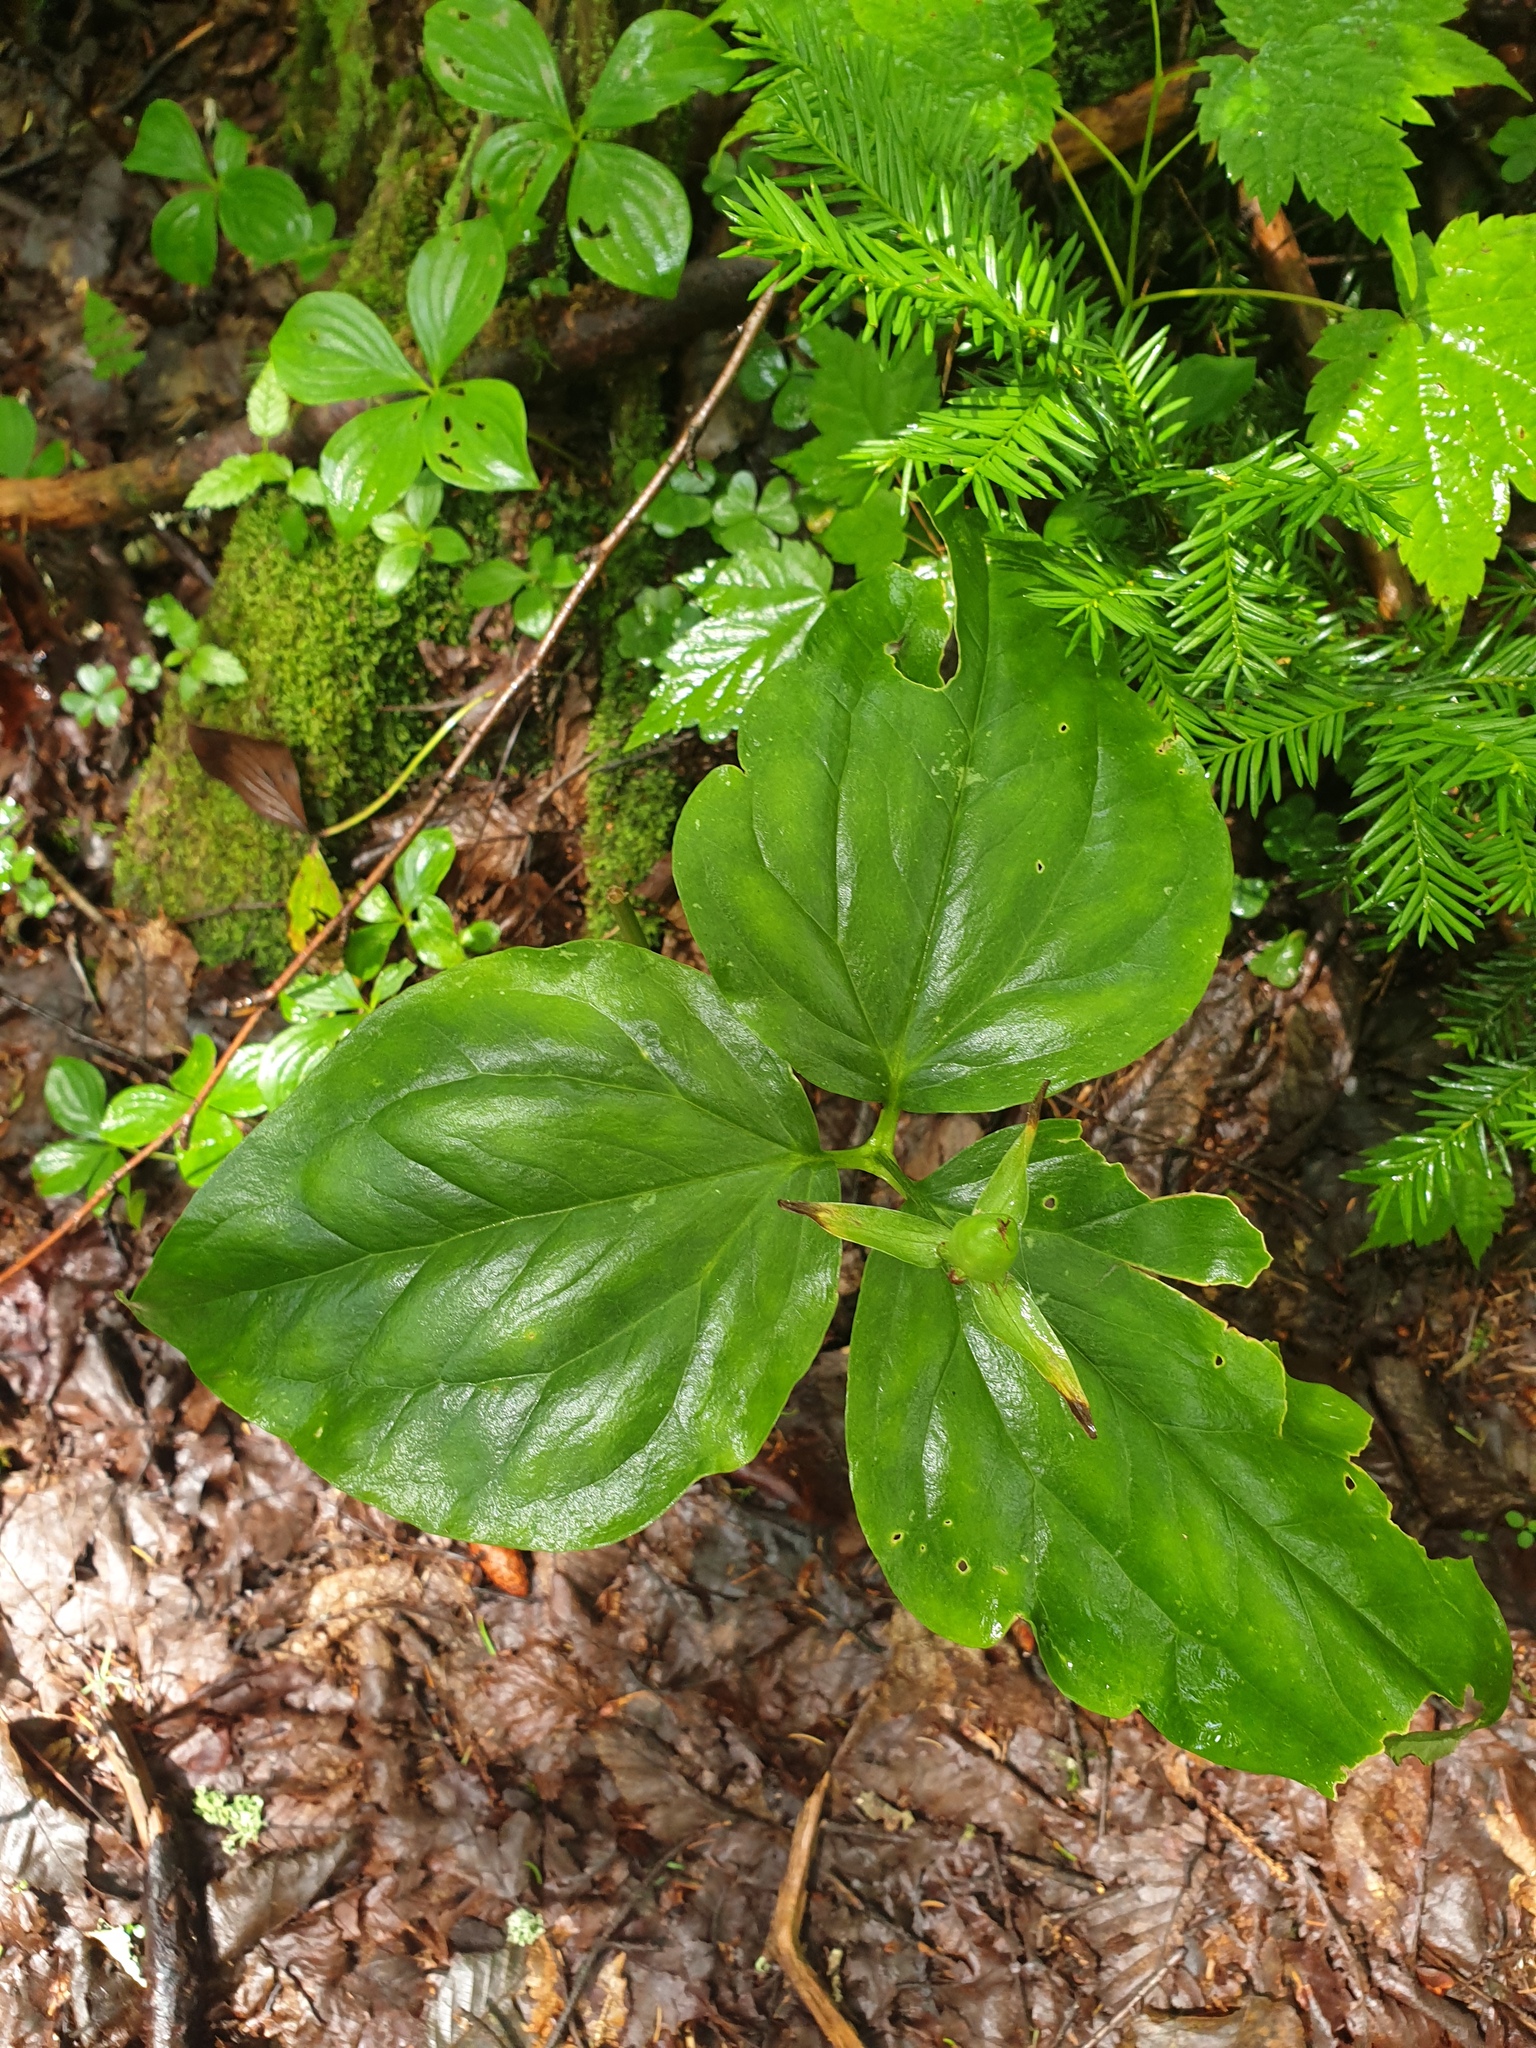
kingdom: Plantae
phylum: Tracheophyta
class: Liliopsida
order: Liliales
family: Melanthiaceae
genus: Trillium
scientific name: Trillium undulatum
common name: Paint trillium
